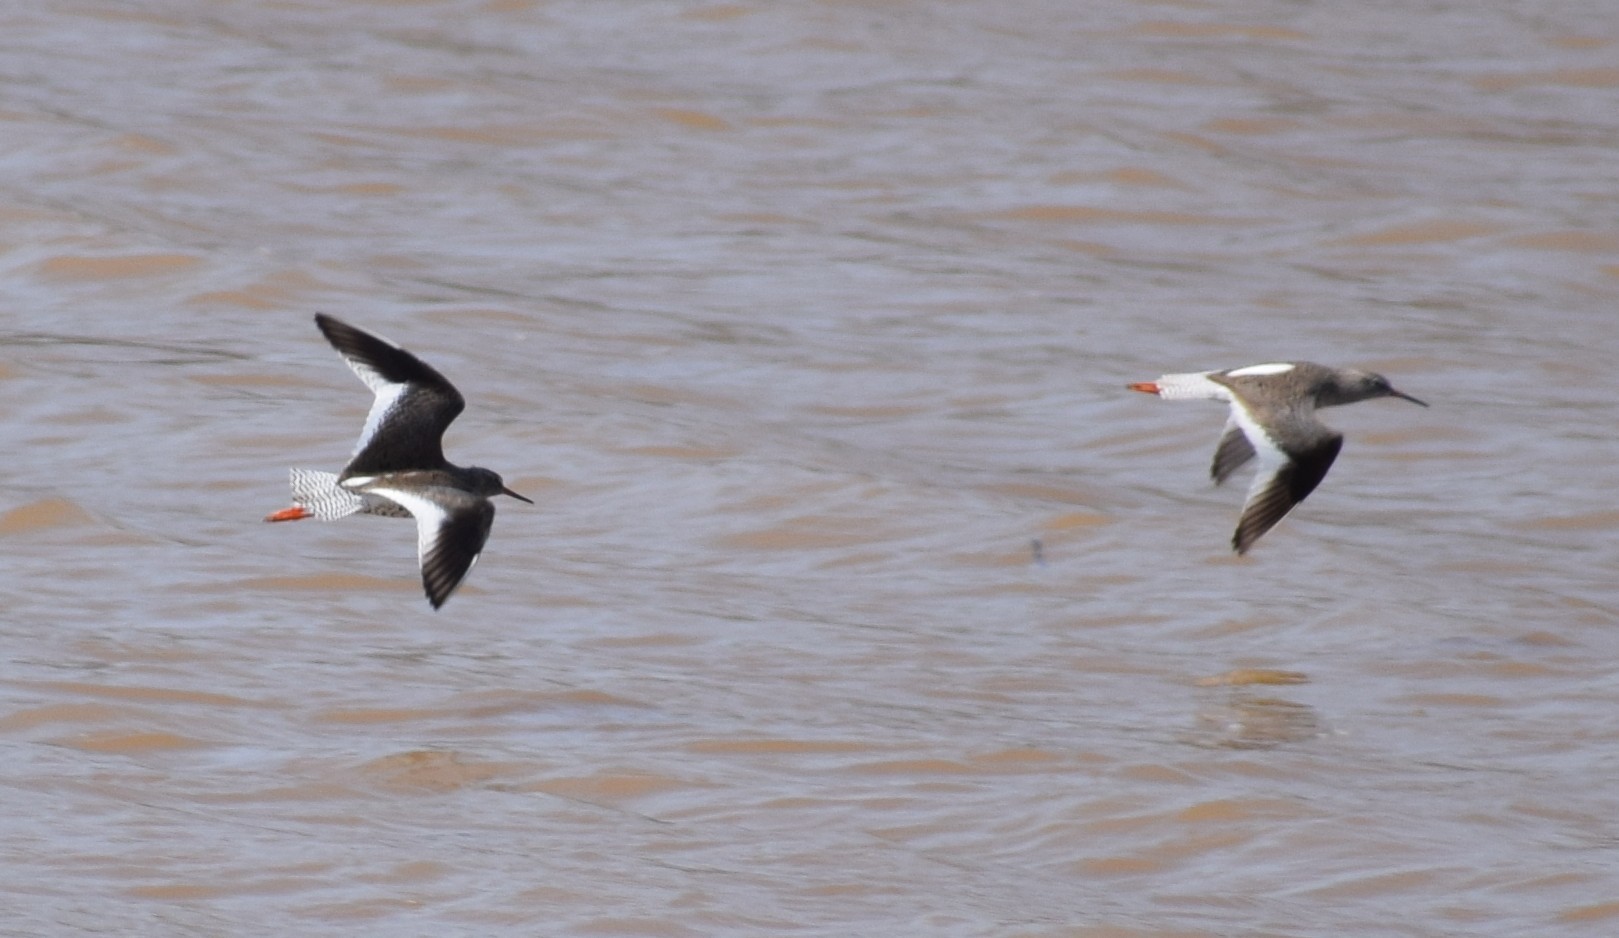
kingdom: Animalia
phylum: Chordata
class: Aves
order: Charadriiformes
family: Scolopacidae
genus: Tringa
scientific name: Tringa totanus
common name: Common redshank
